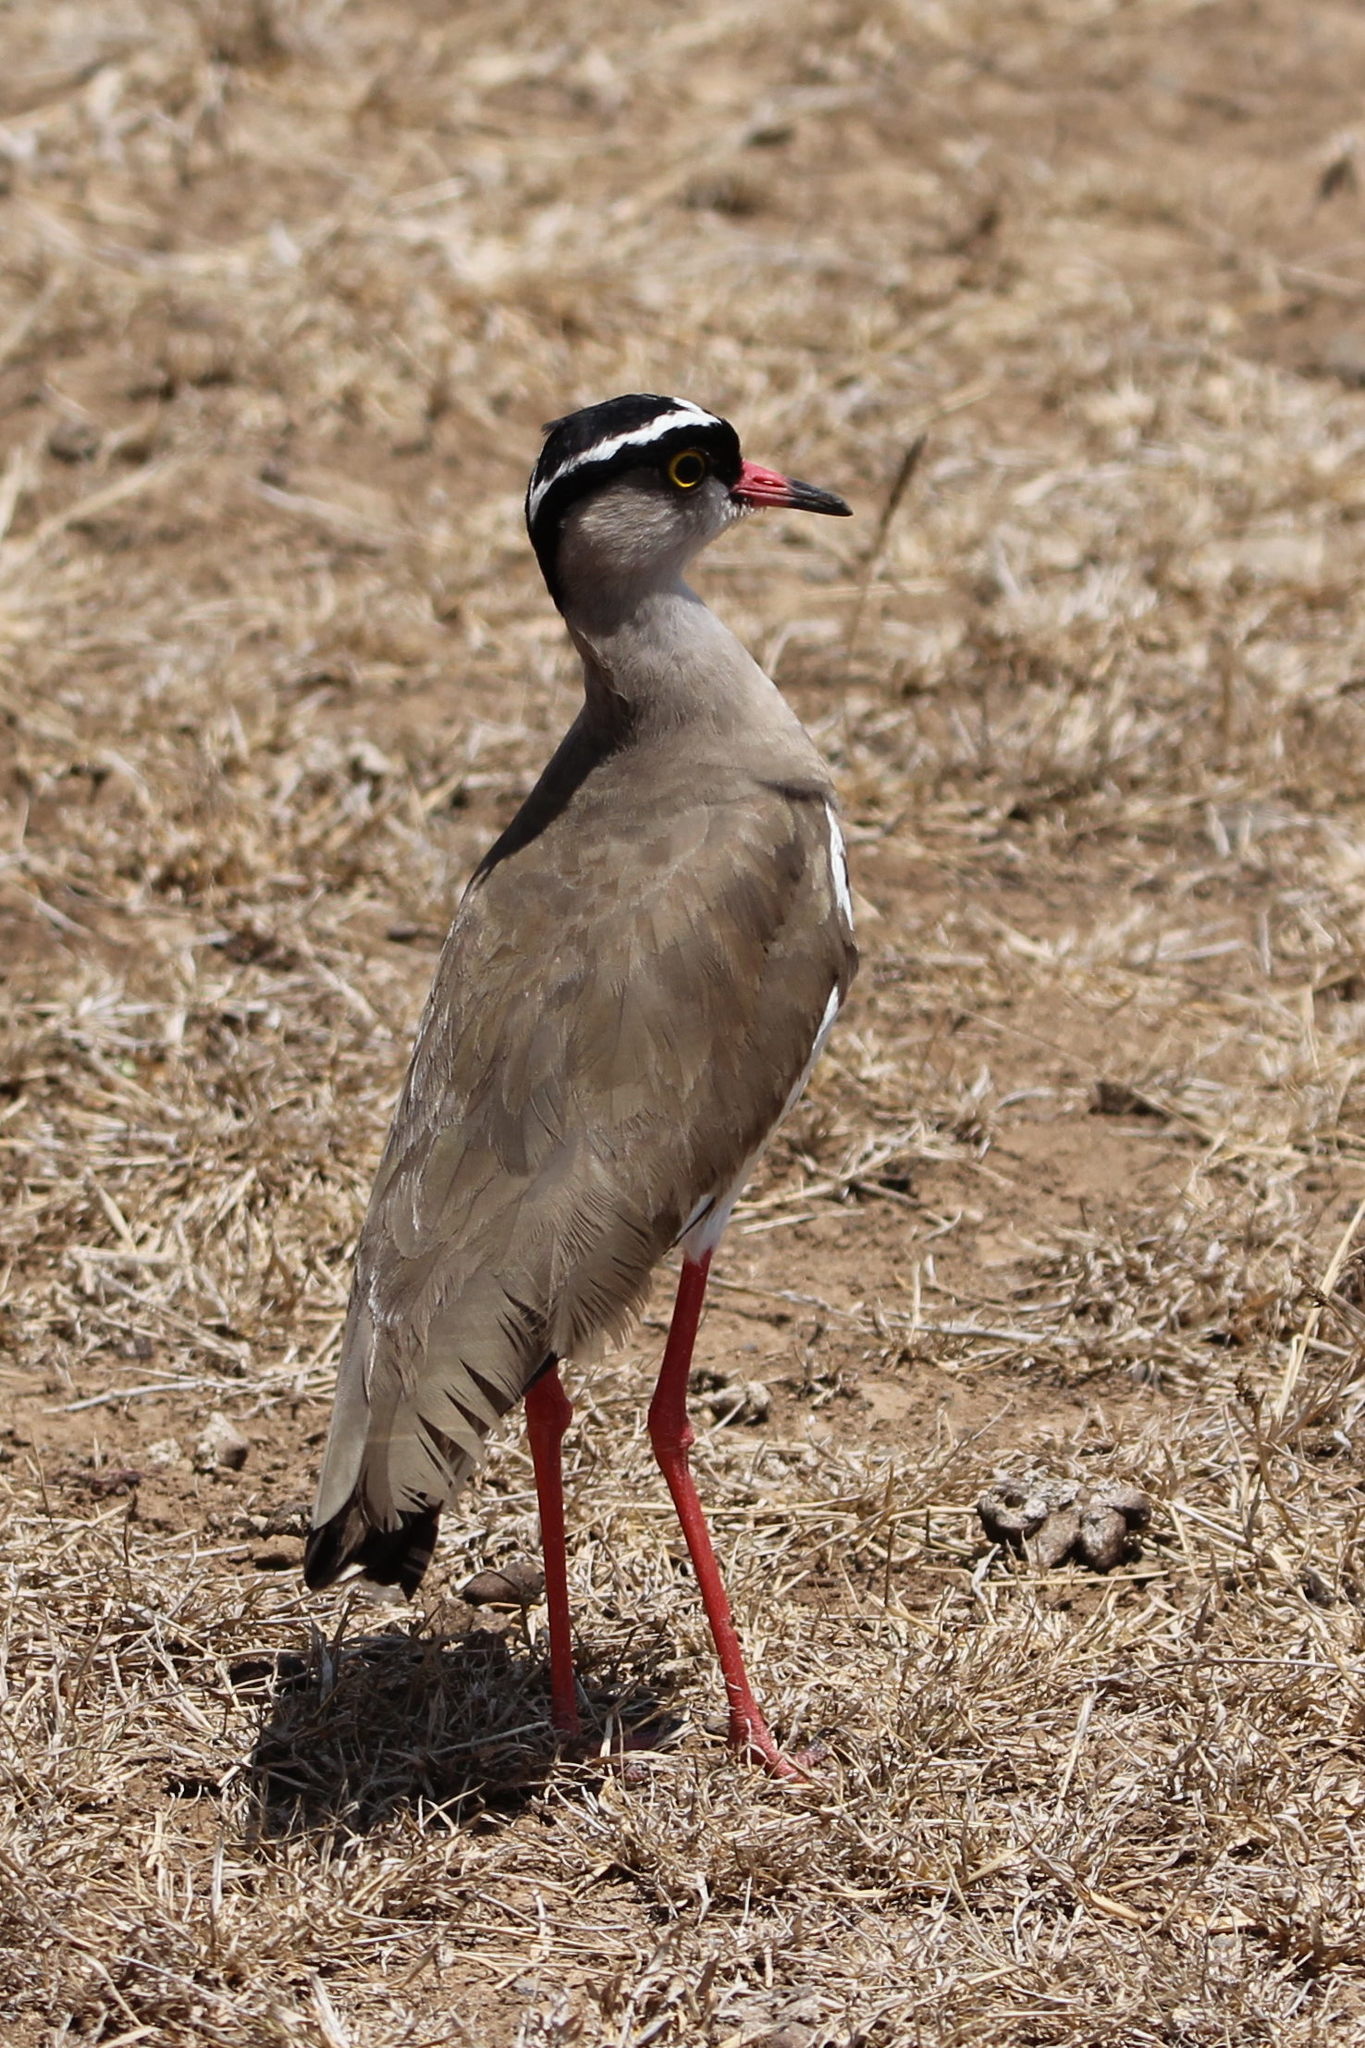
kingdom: Animalia
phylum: Chordata
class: Aves
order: Charadriiformes
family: Charadriidae
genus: Vanellus
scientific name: Vanellus coronatus
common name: Crowned lapwing
